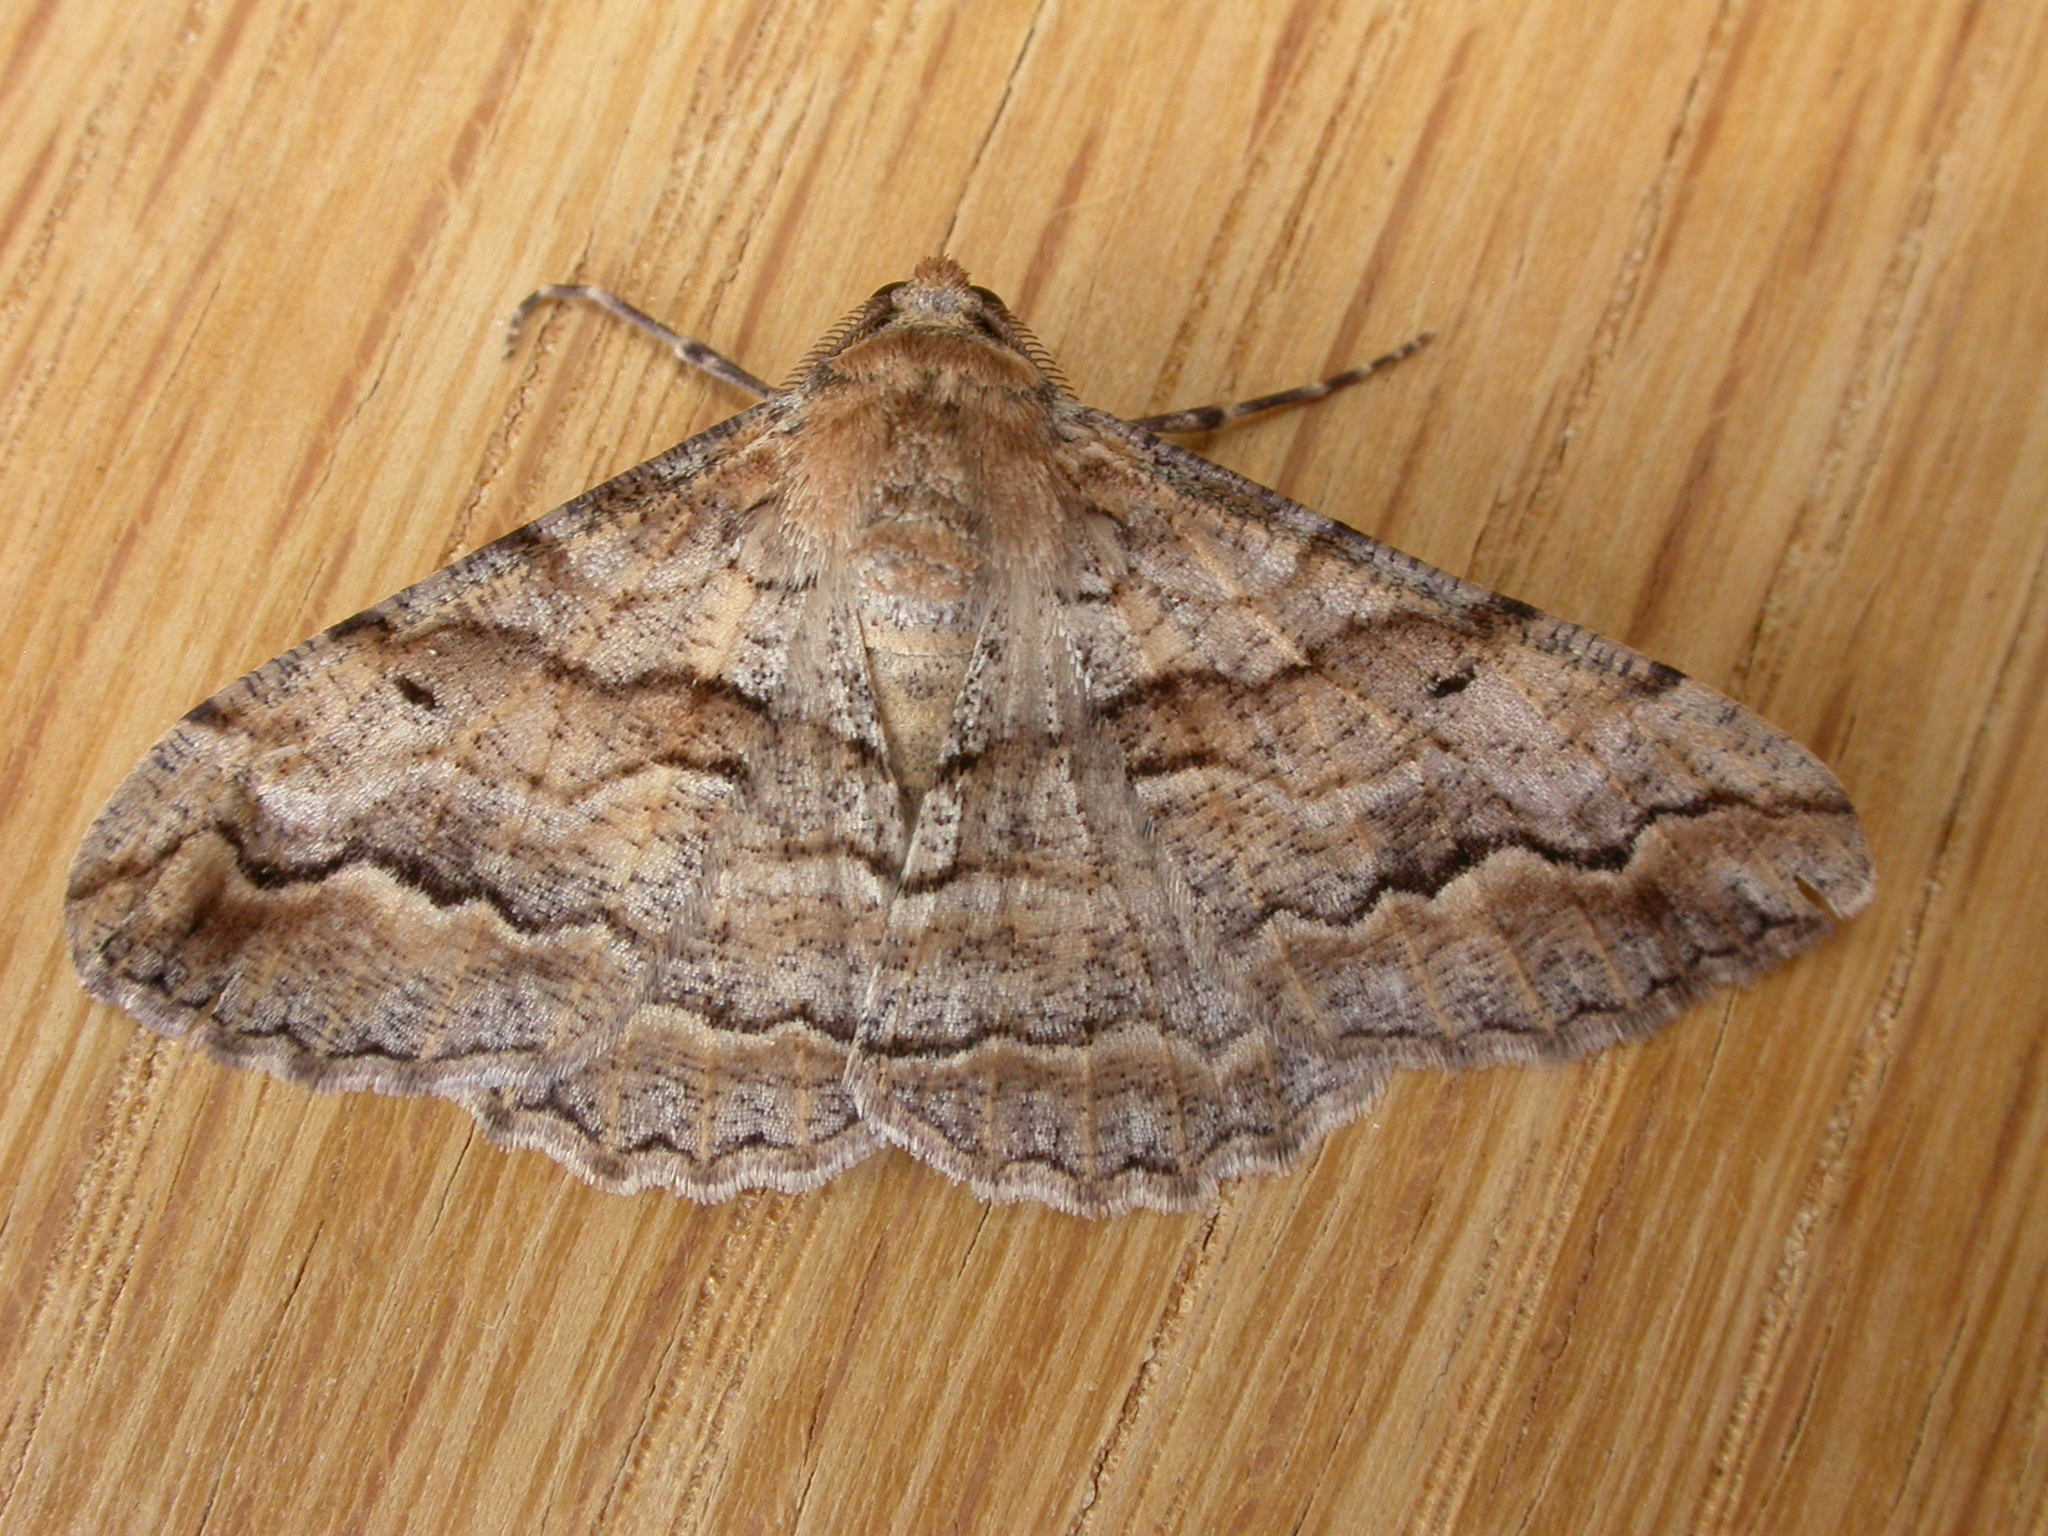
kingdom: Animalia
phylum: Arthropoda
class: Insecta
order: Lepidoptera
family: Geometridae
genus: Gastrinodes
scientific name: Gastrinodes bitaeniaria
